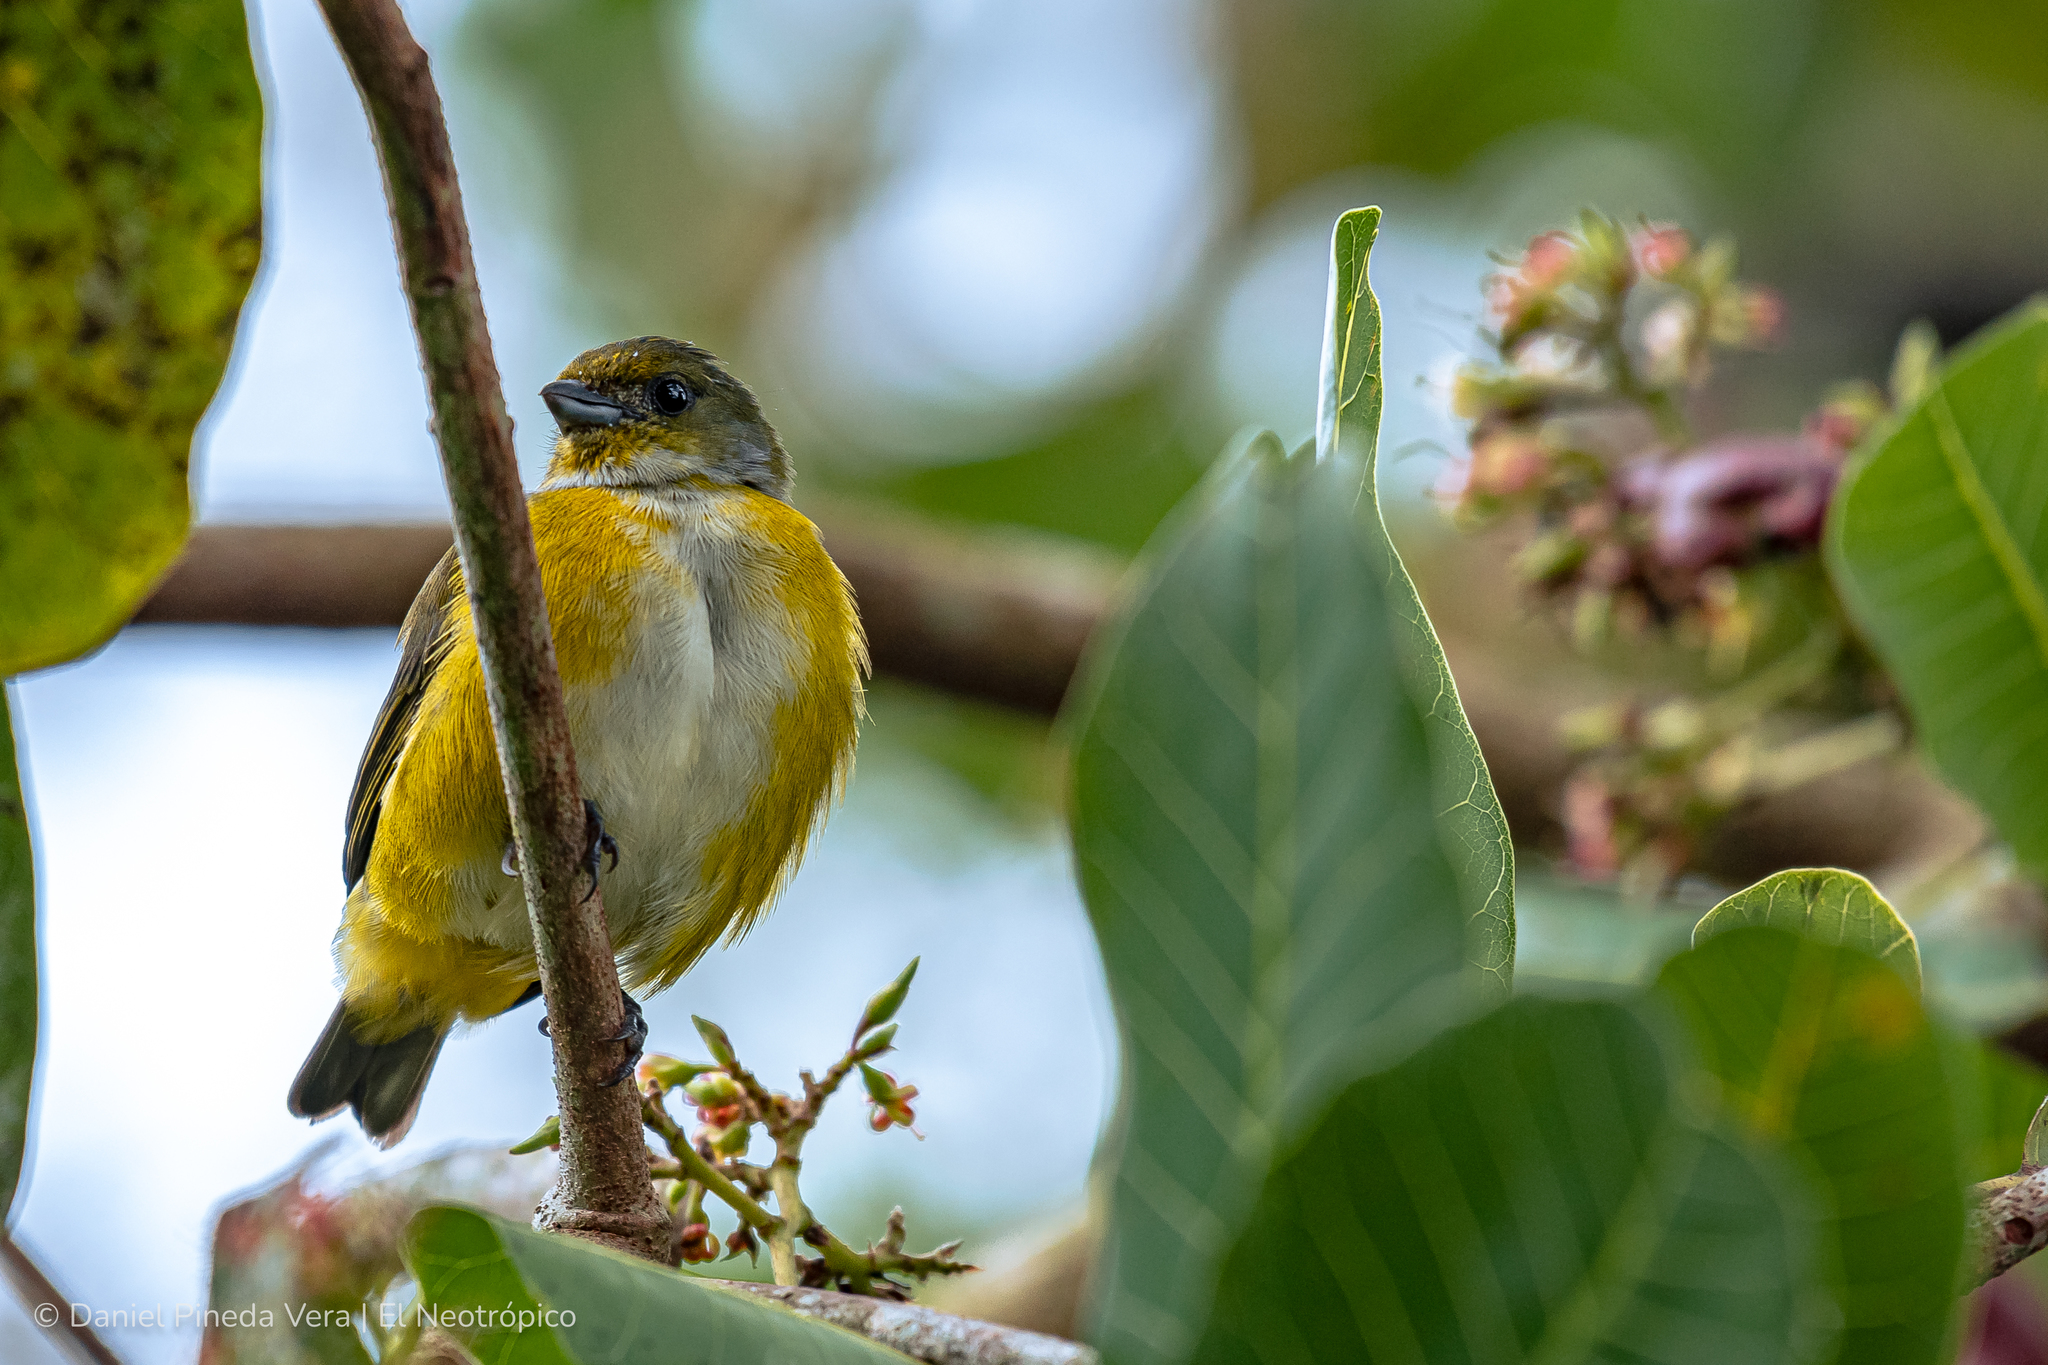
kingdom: Animalia
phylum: Chordata
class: Aves
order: Passeriformes
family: Fringillidae
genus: Euphonia
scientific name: Euphonia hirundinacea
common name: Yellow-throated euphonia
